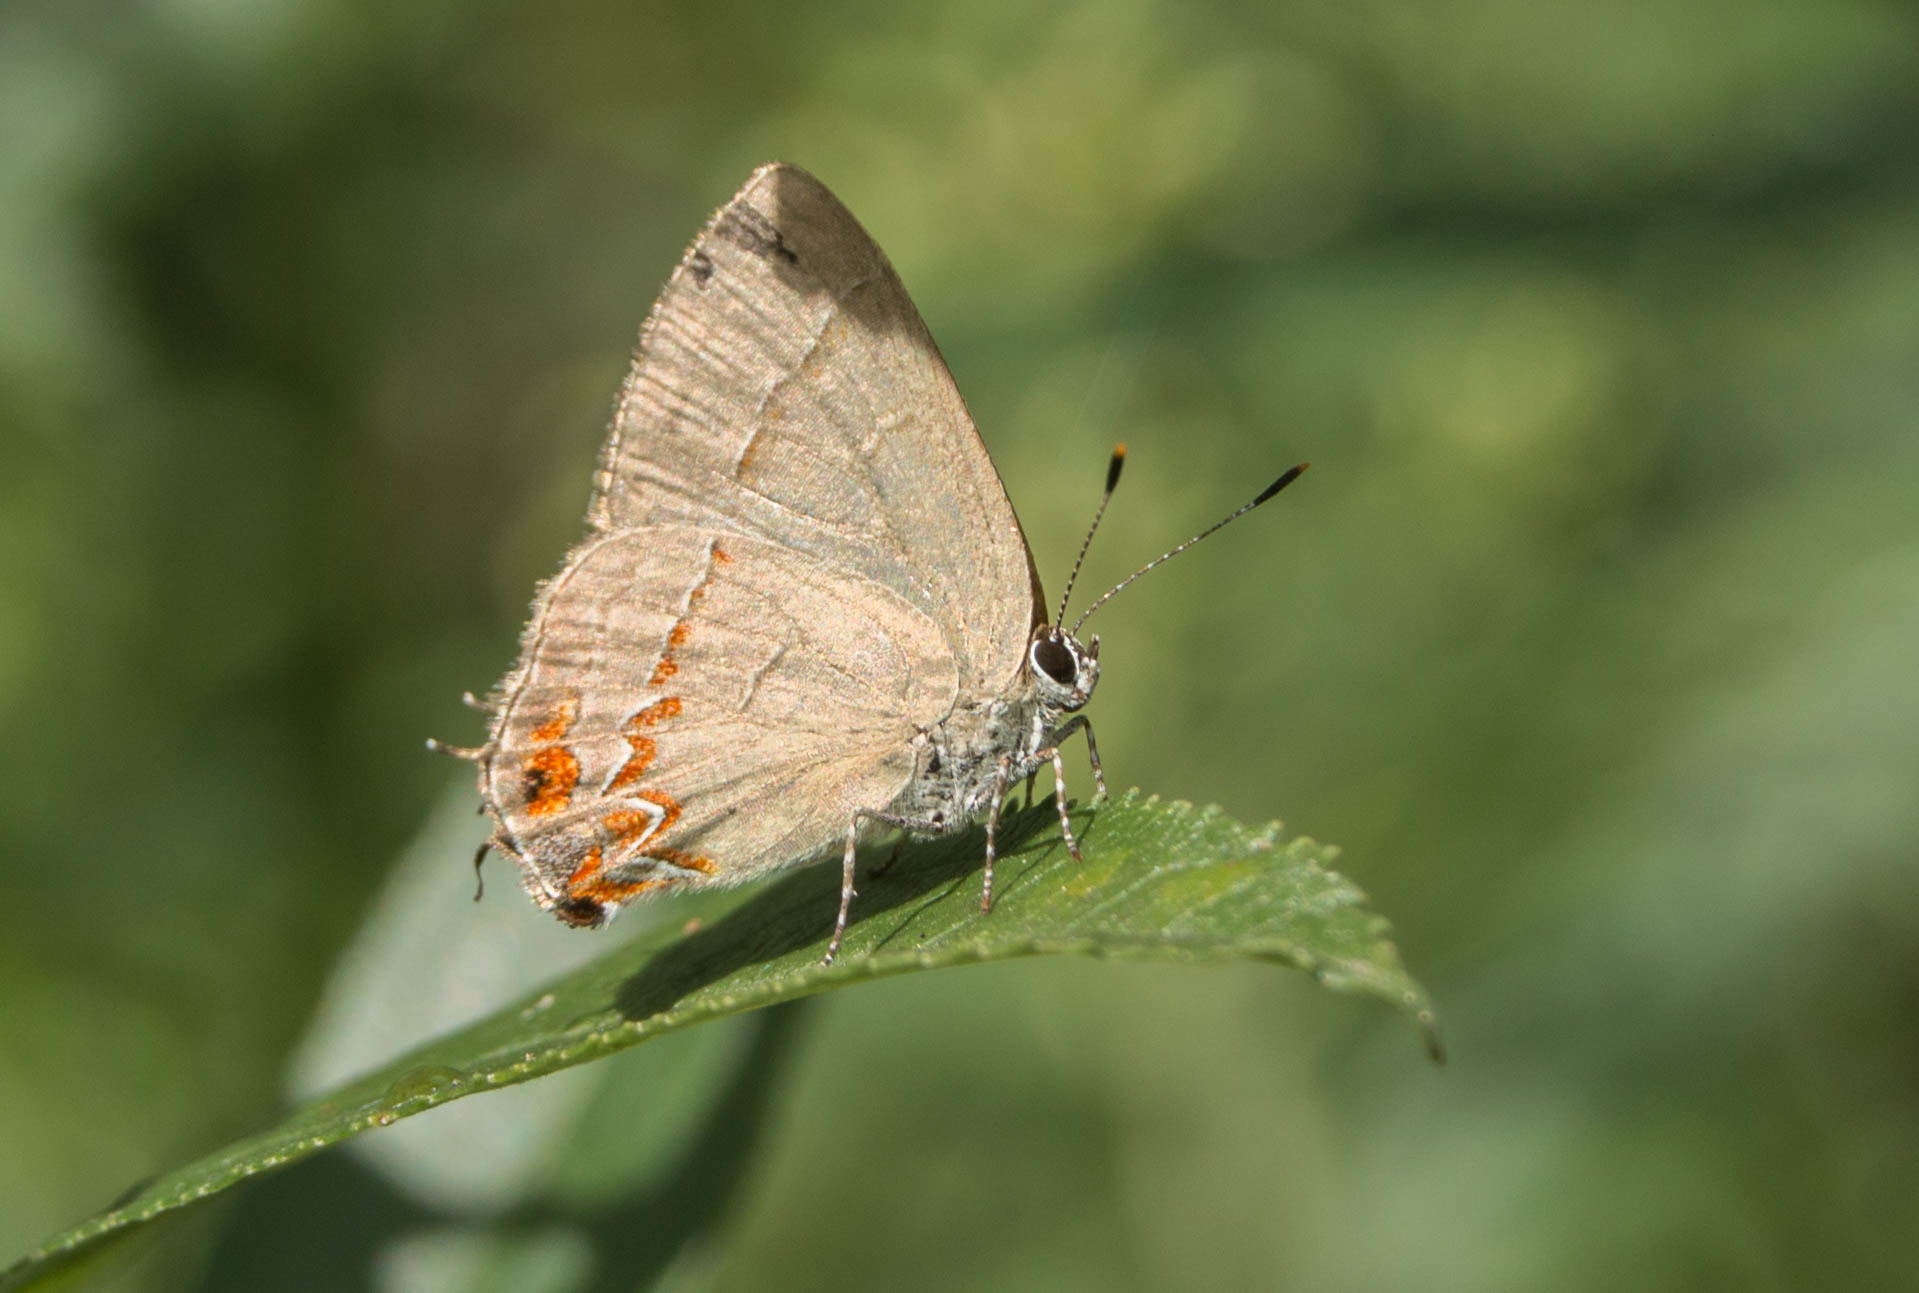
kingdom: Animalia
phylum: Arthropoda
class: Insecta
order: Lepidoptera
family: Lycaenidae
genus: Calycopis
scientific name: Calycopis caulonia
